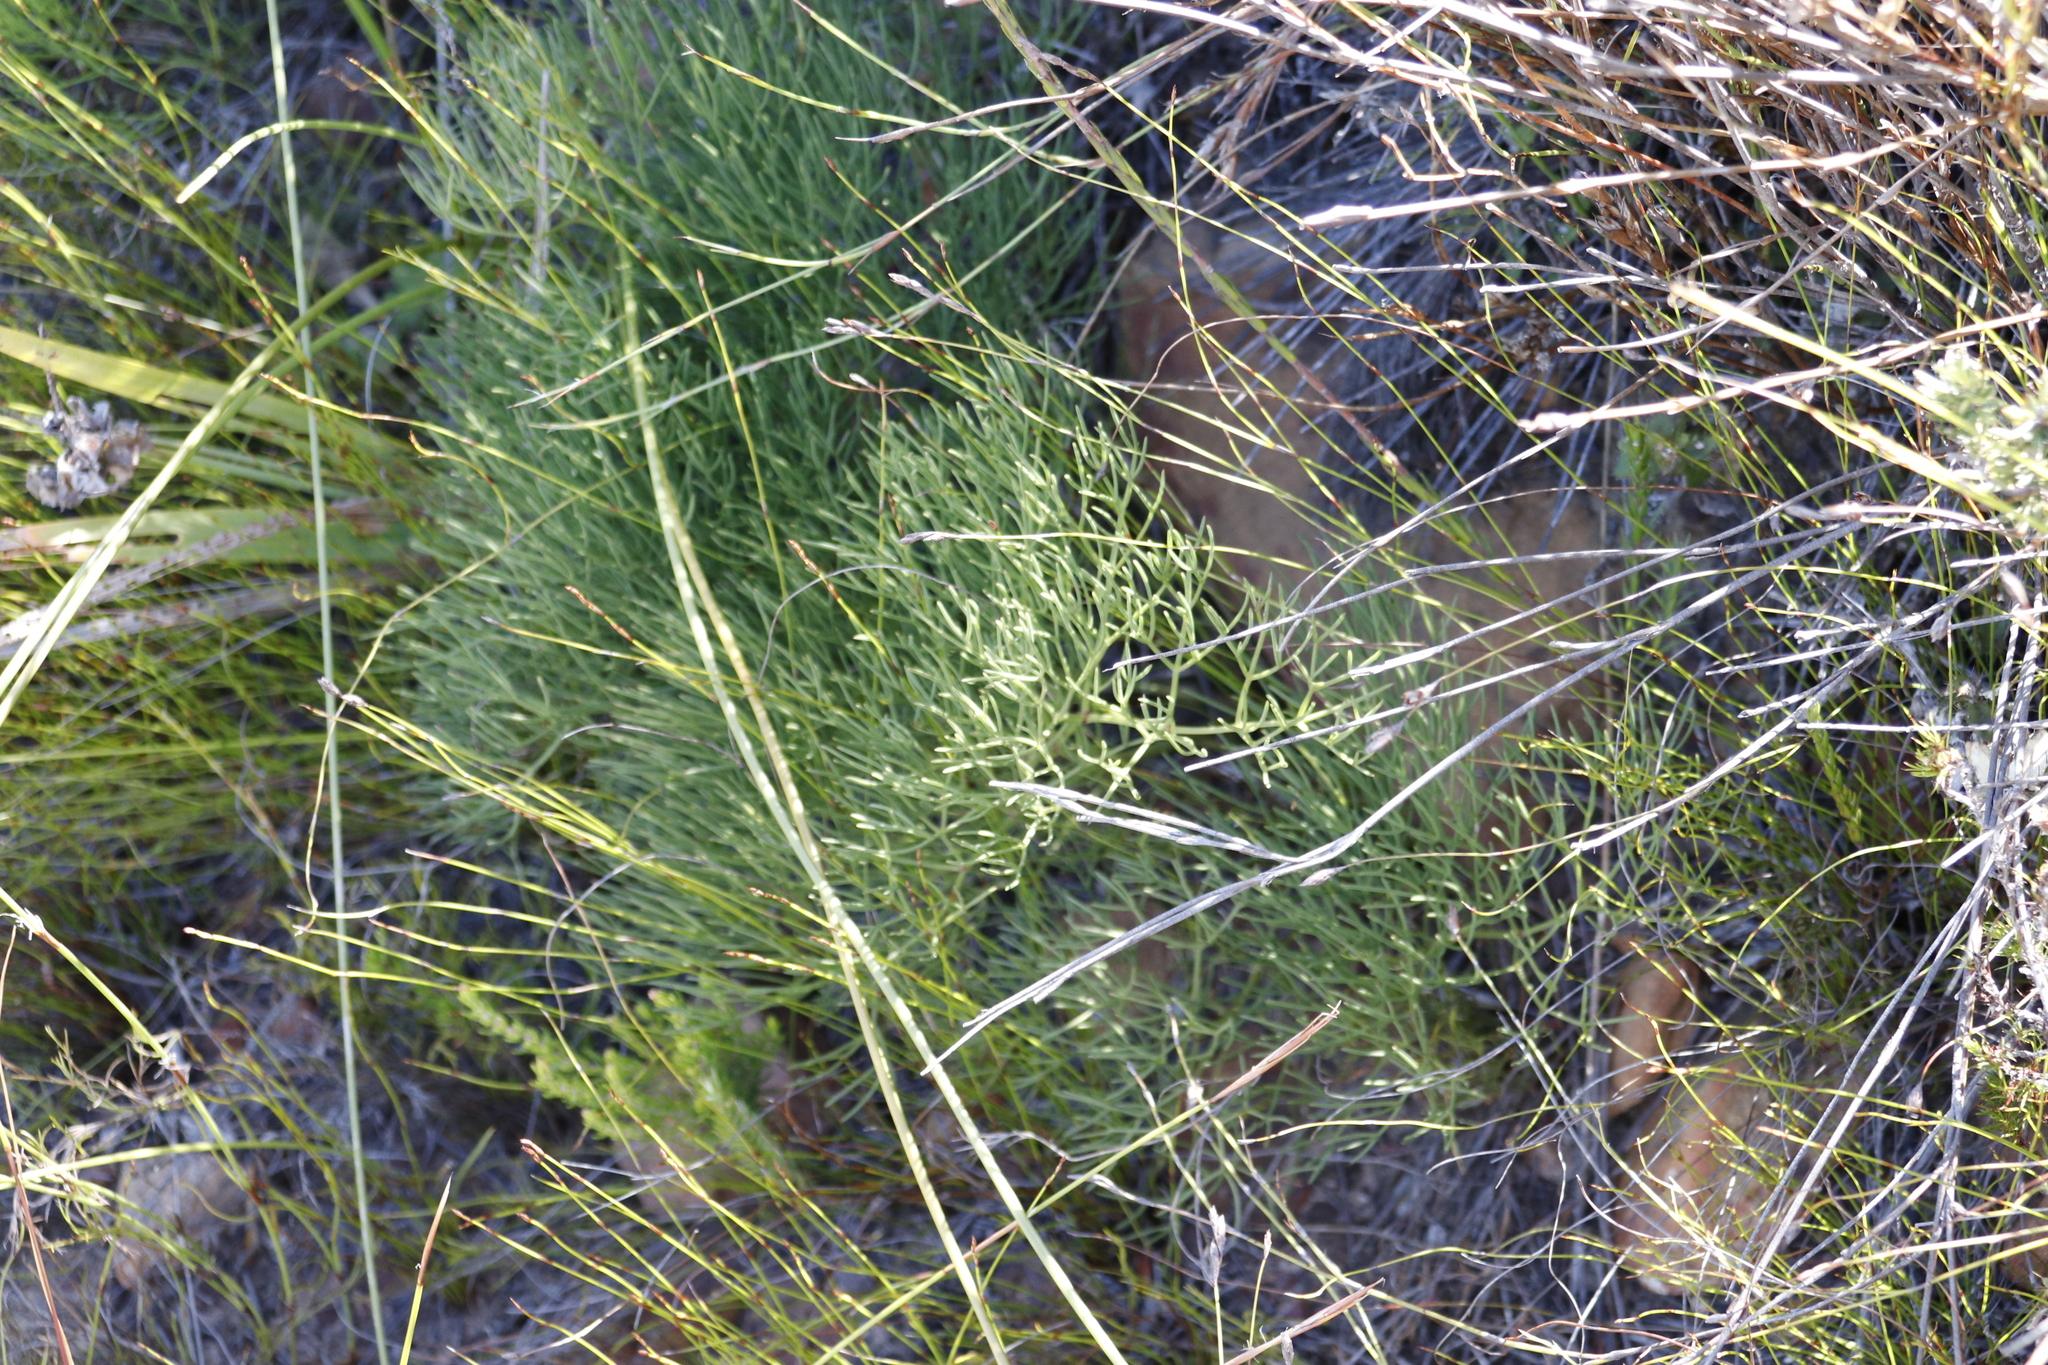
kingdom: Plantae
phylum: Tracheophyta
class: Magnoliopsida
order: Apiales
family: Apiaceae
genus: Nanobubon
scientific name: Nanobubon strictum
